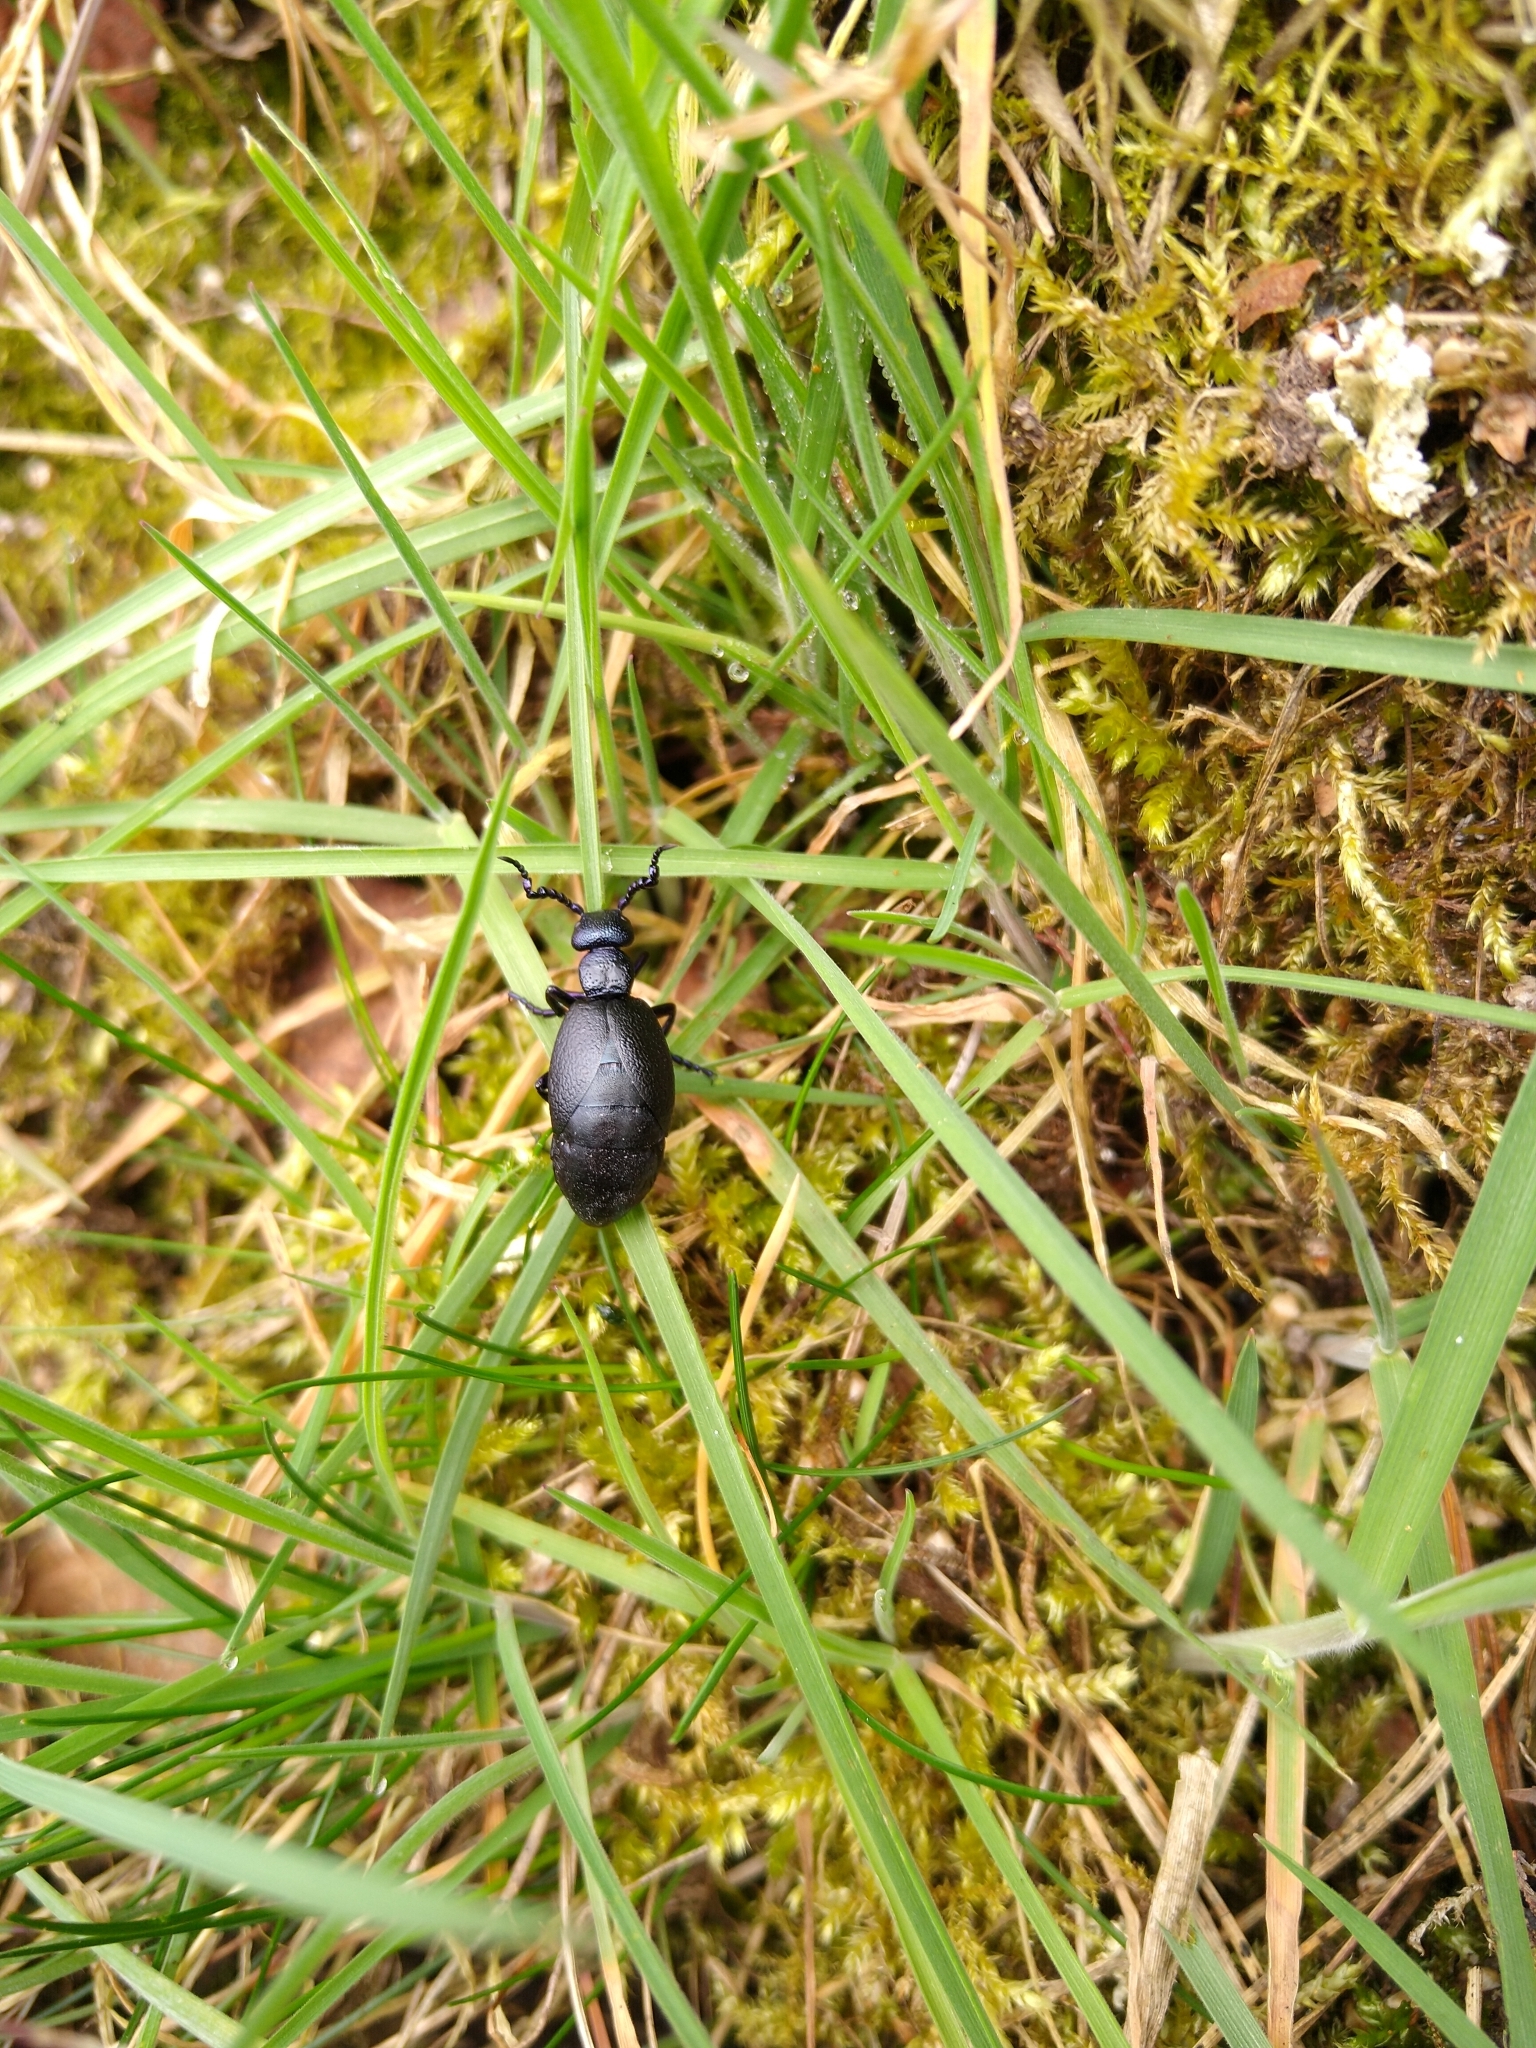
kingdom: Animalia
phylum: Arthropoda
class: Insecta
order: Coleoptera
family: Meloidae
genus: Meloe
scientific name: Meloe proscarabaeus
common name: Black oil-beetle
